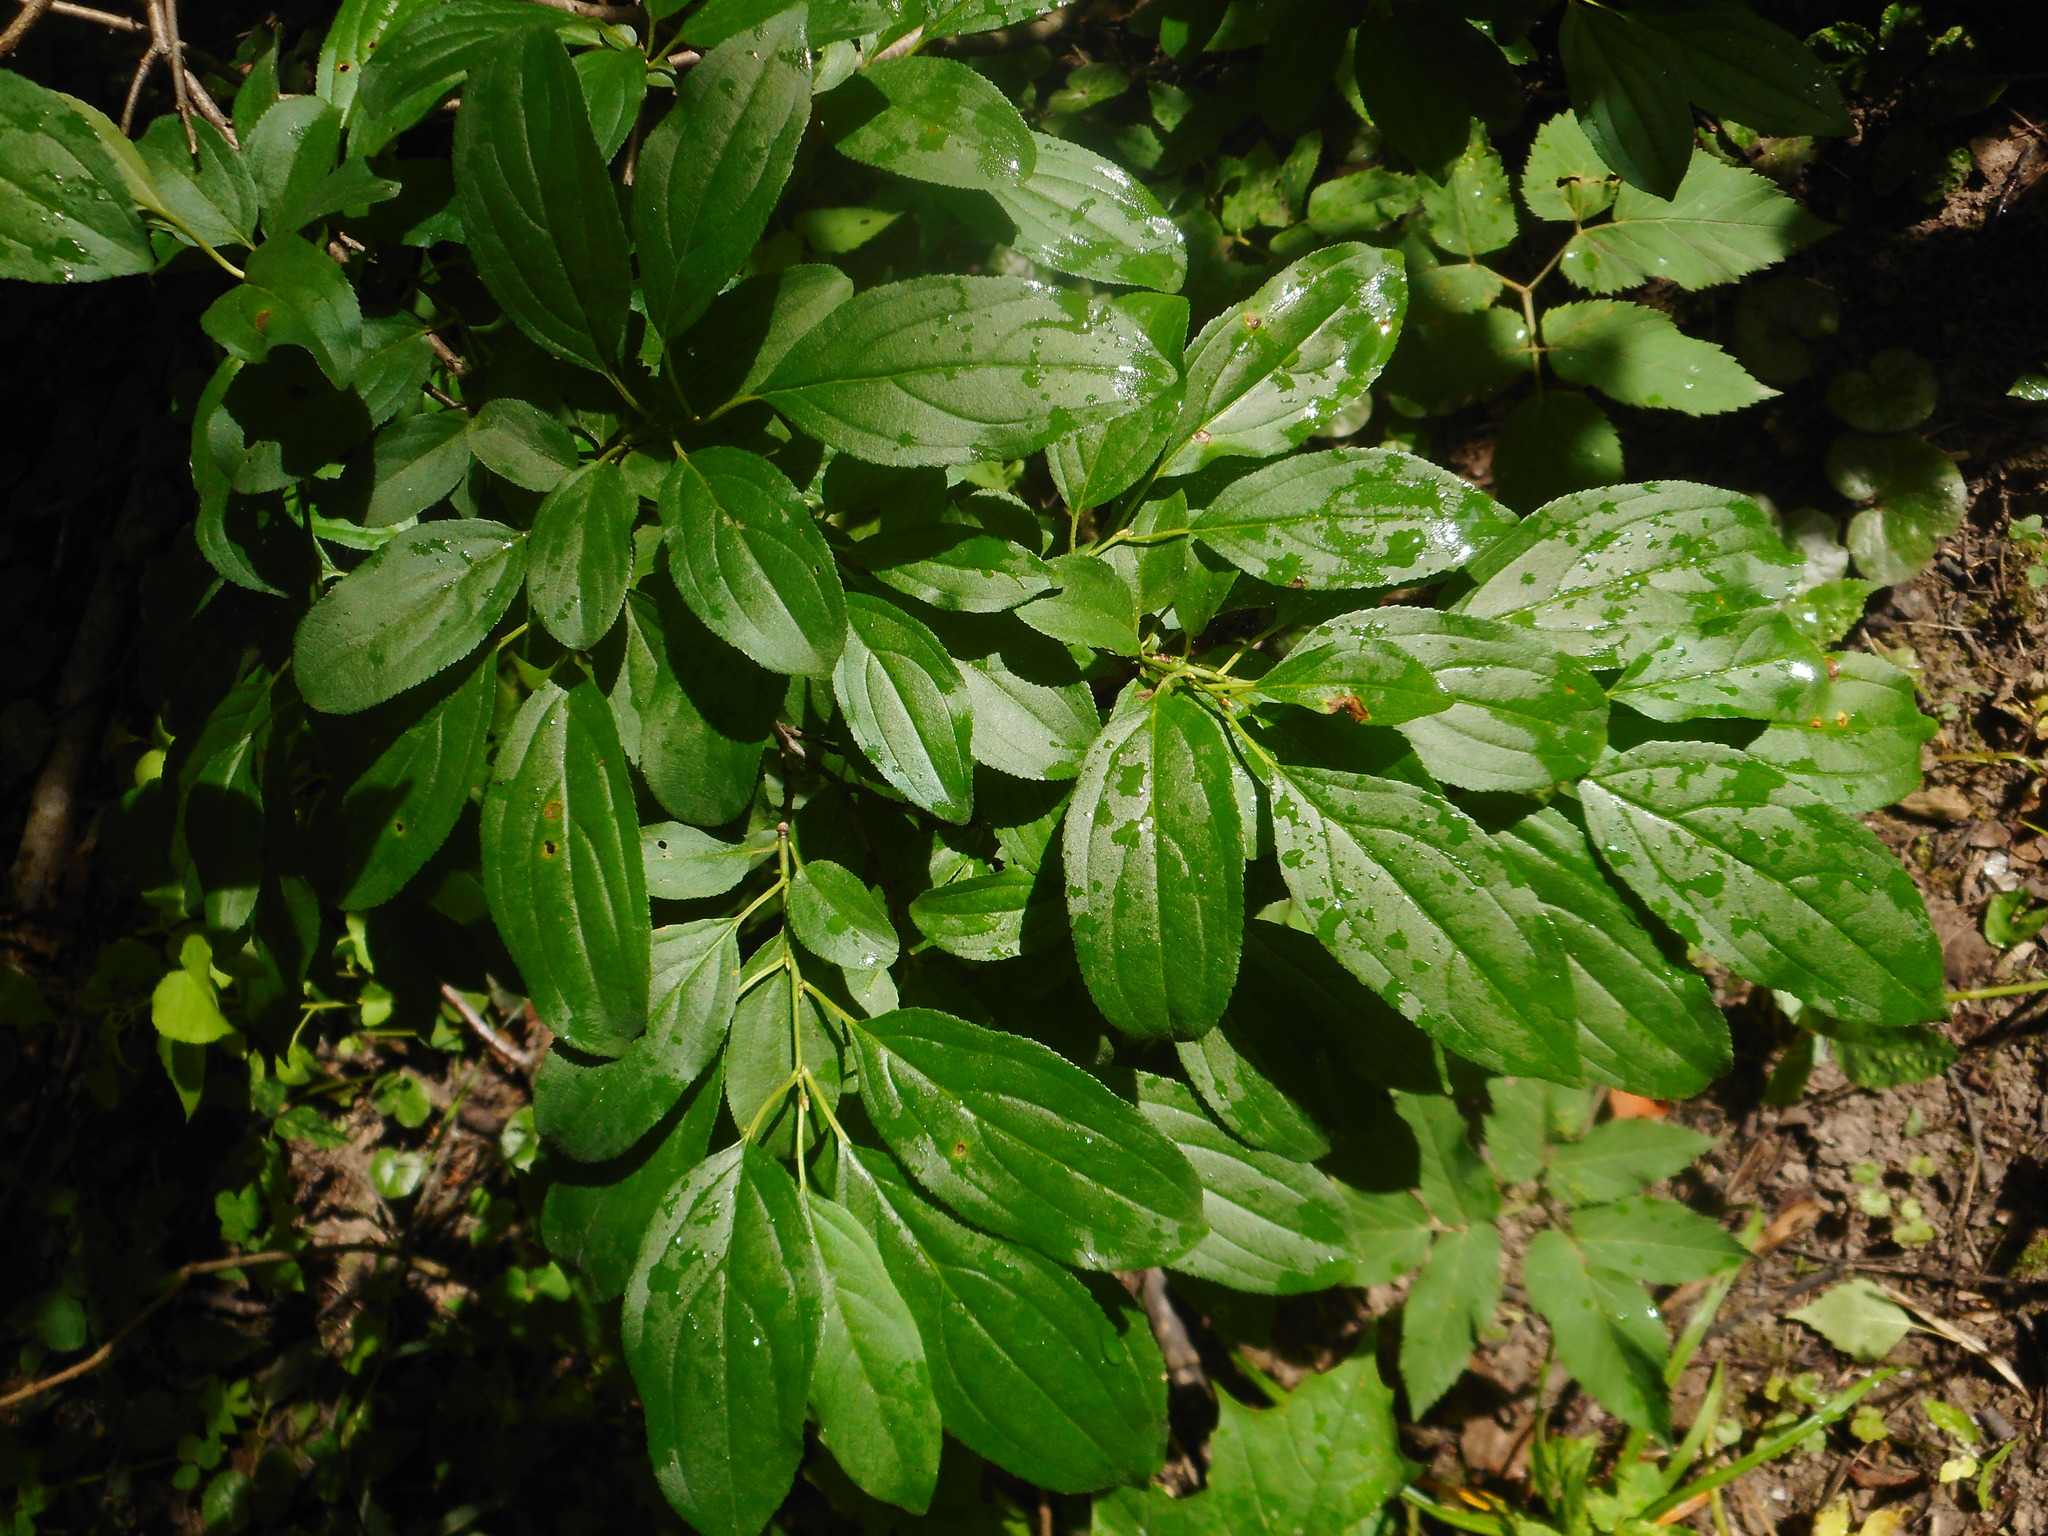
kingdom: Plantae
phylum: Tracheophyta
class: Magnoliopsida
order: Rosales
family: Rhamnaceae
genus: Rhamnus
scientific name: Rhamnus cathartica
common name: Common buckthorn
